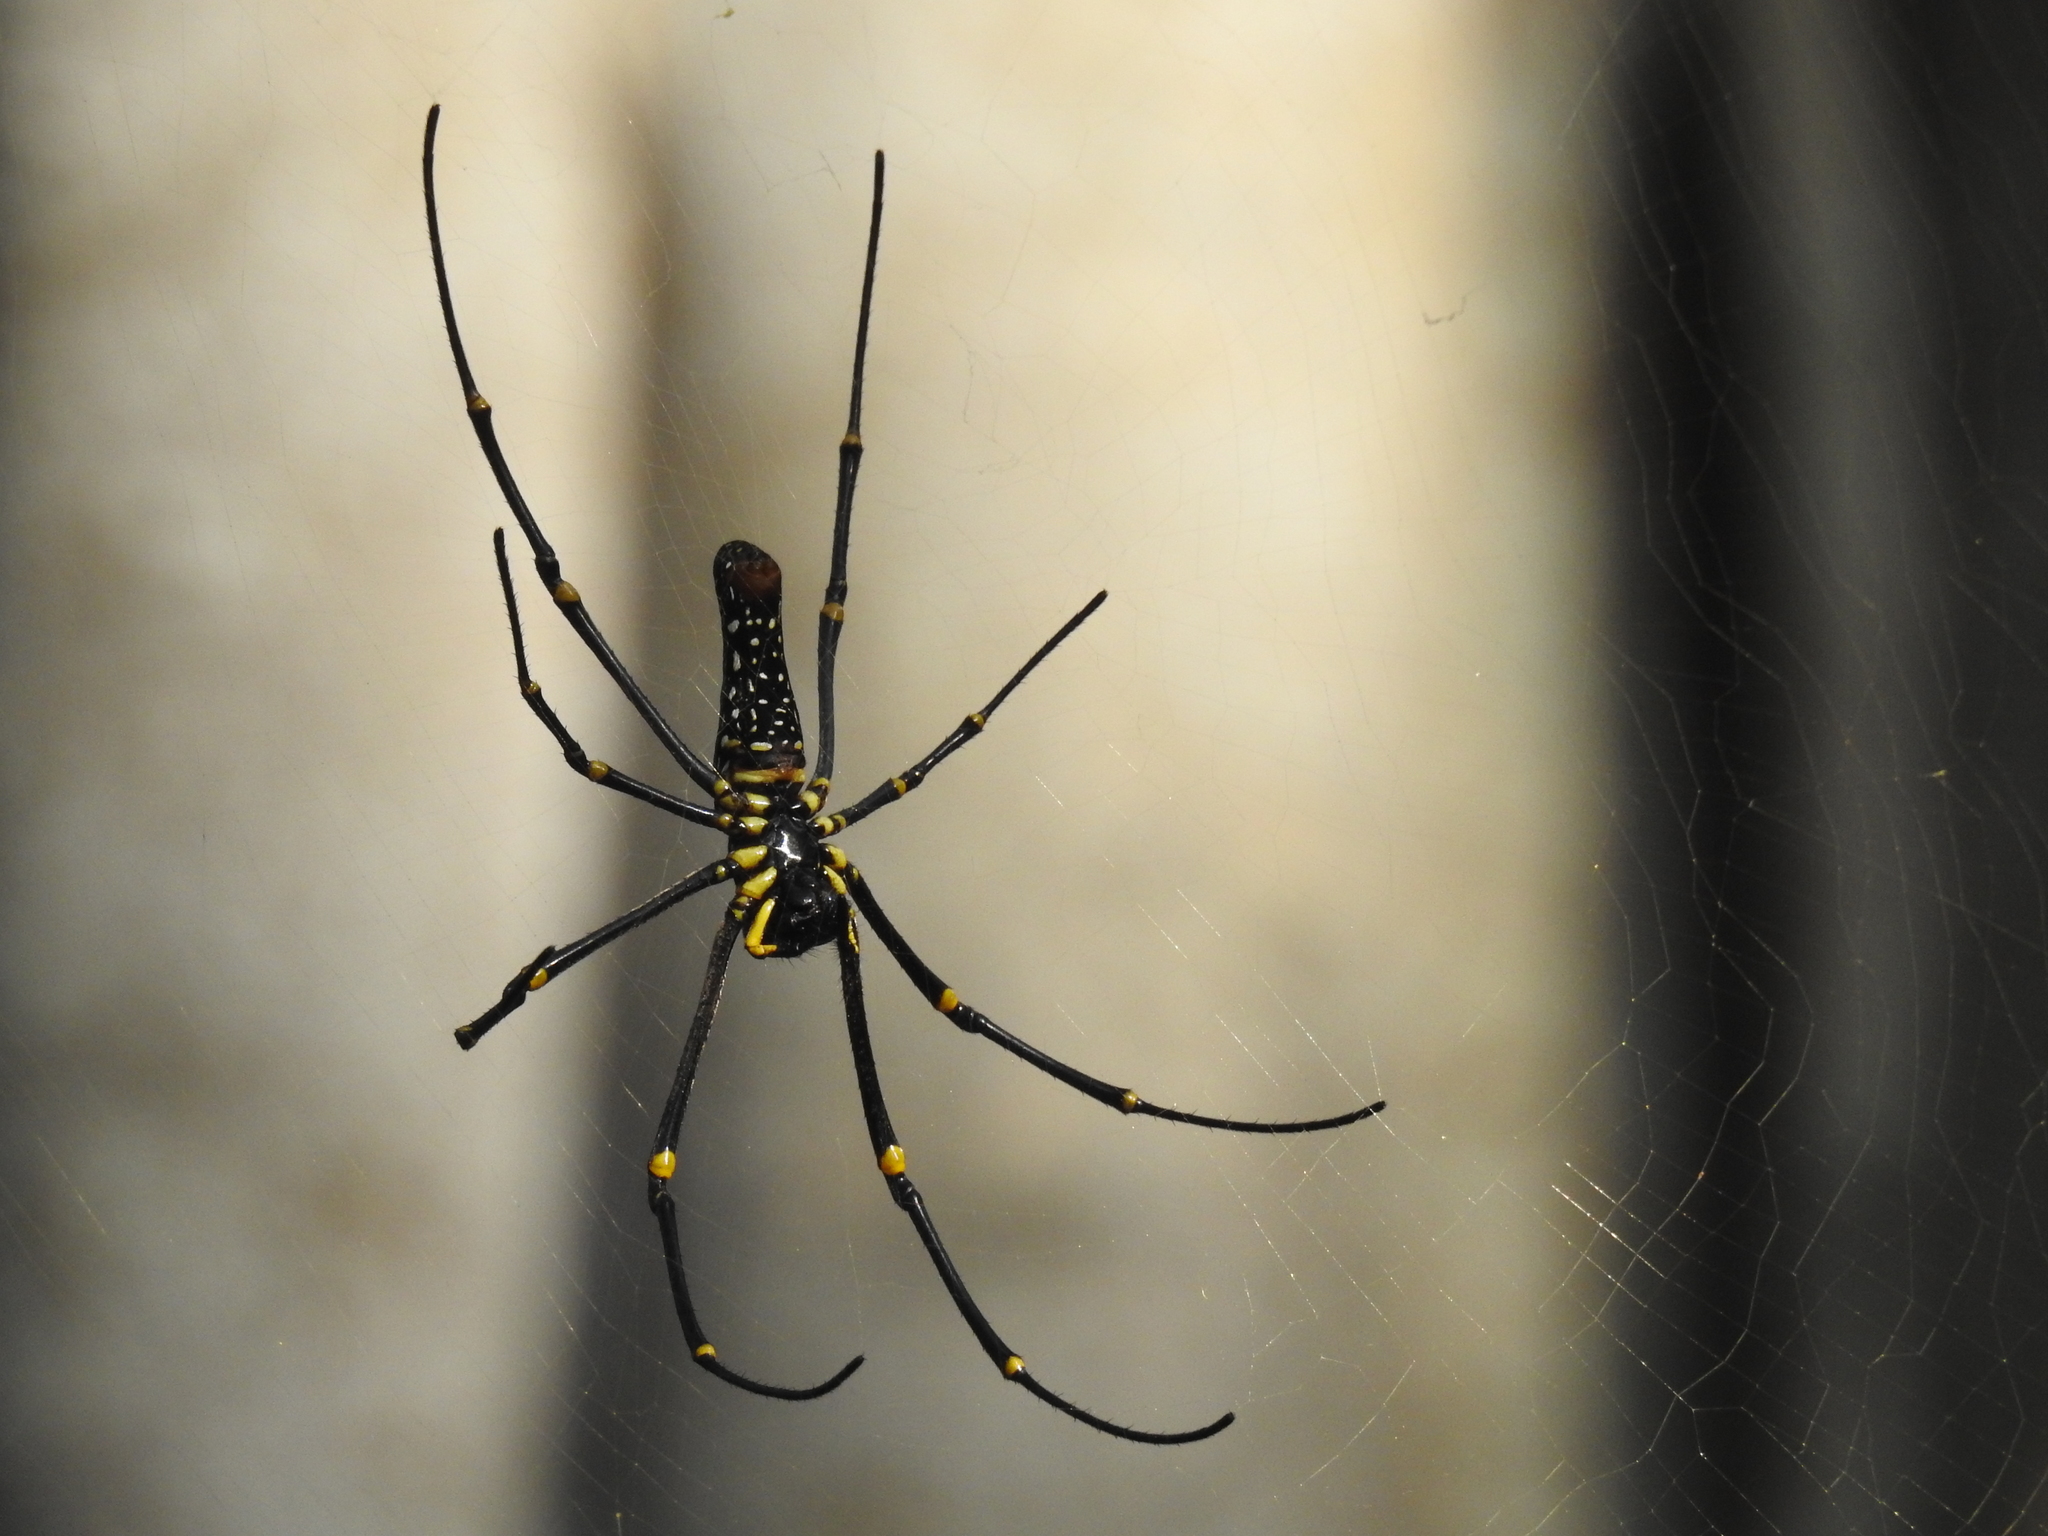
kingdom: Animalia
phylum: Arthropoda
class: Arachnida
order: Araneae
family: Araneidae
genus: Nephila
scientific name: Nephila pilipes
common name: Giant golden orb weaver
